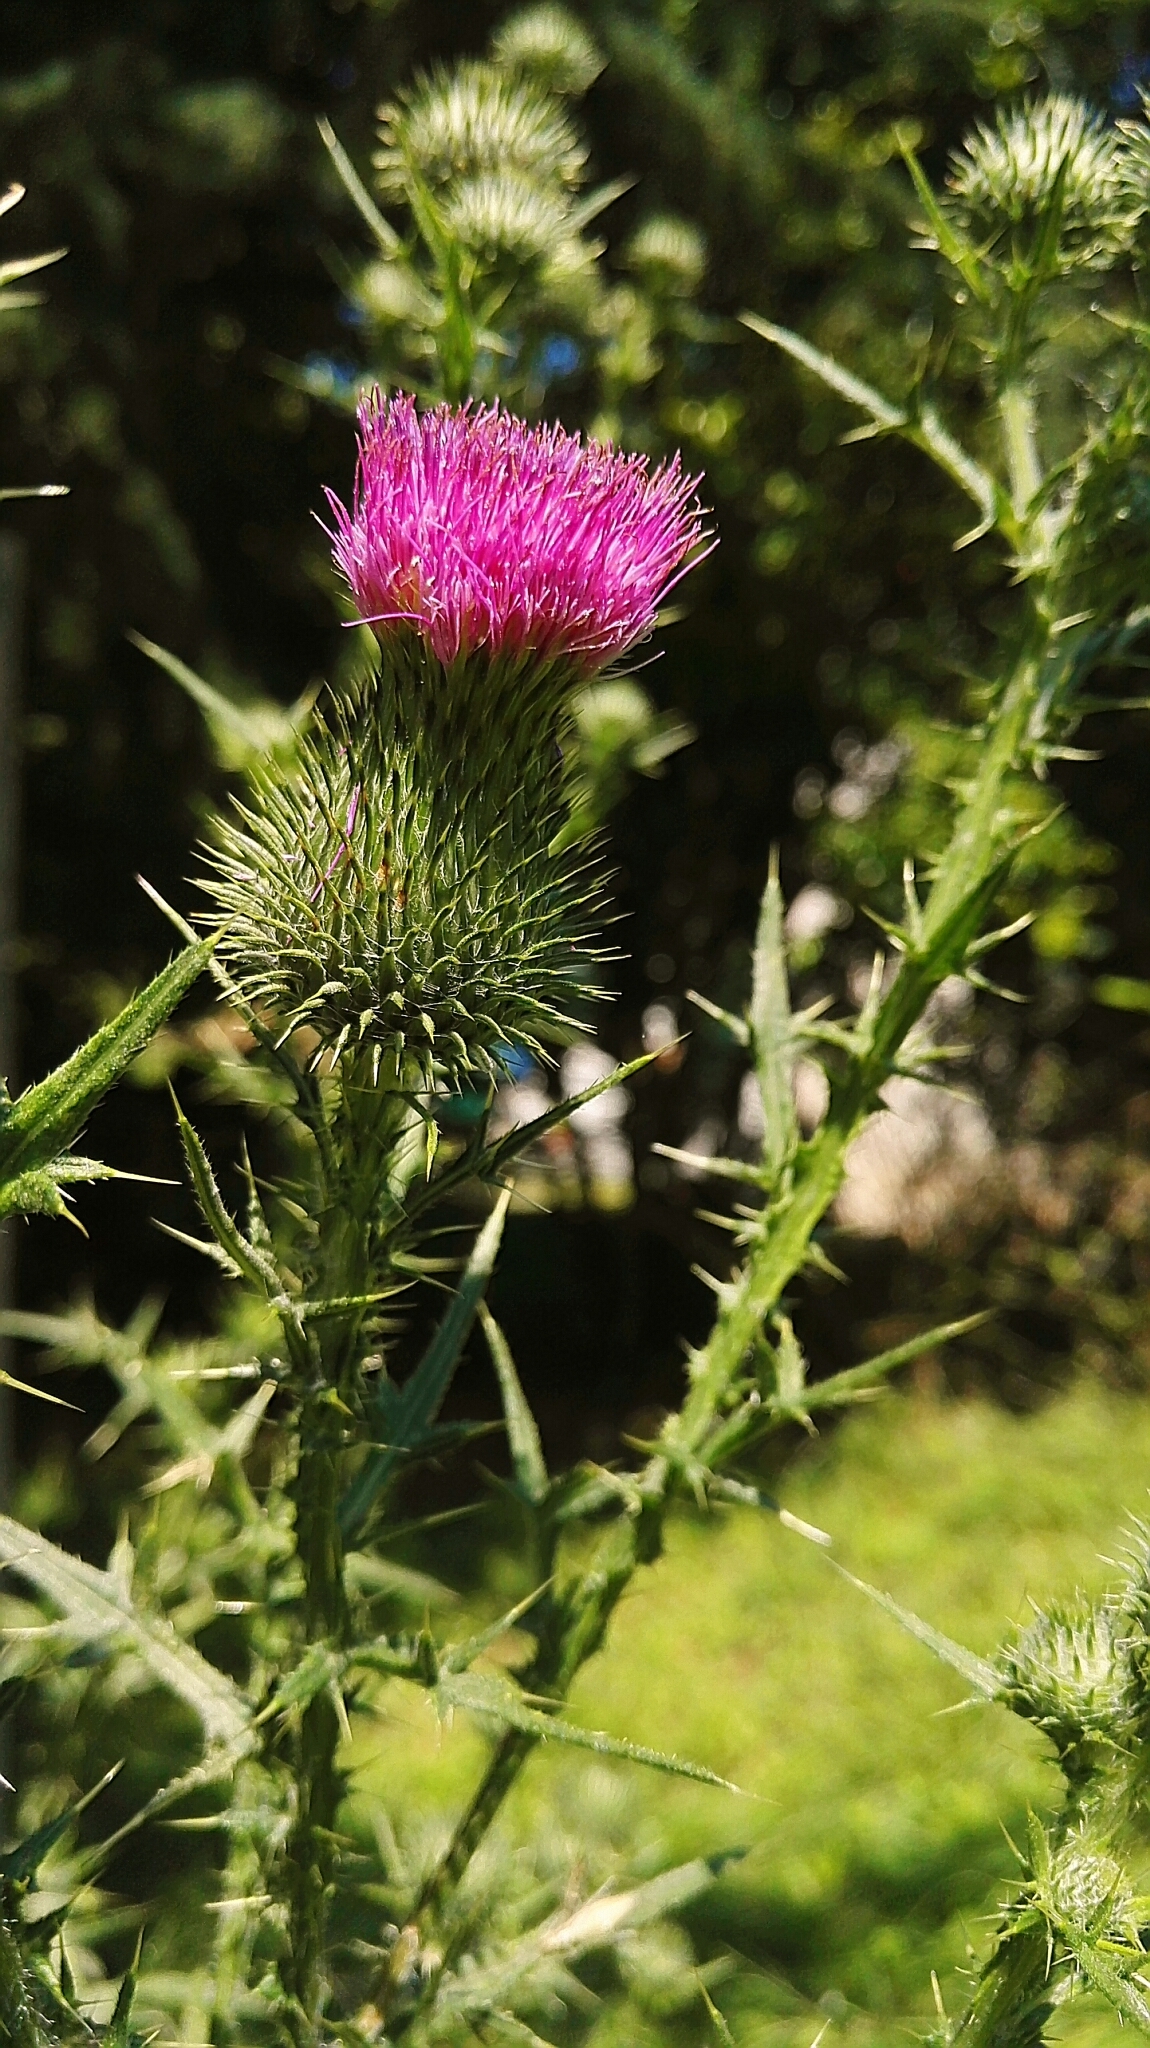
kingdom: Plantae
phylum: Tracheophyta
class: Magnoliopsida
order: Asterales
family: Asteraceae
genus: Cirsium
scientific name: Cirsium vulgare
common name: Bull thistle
